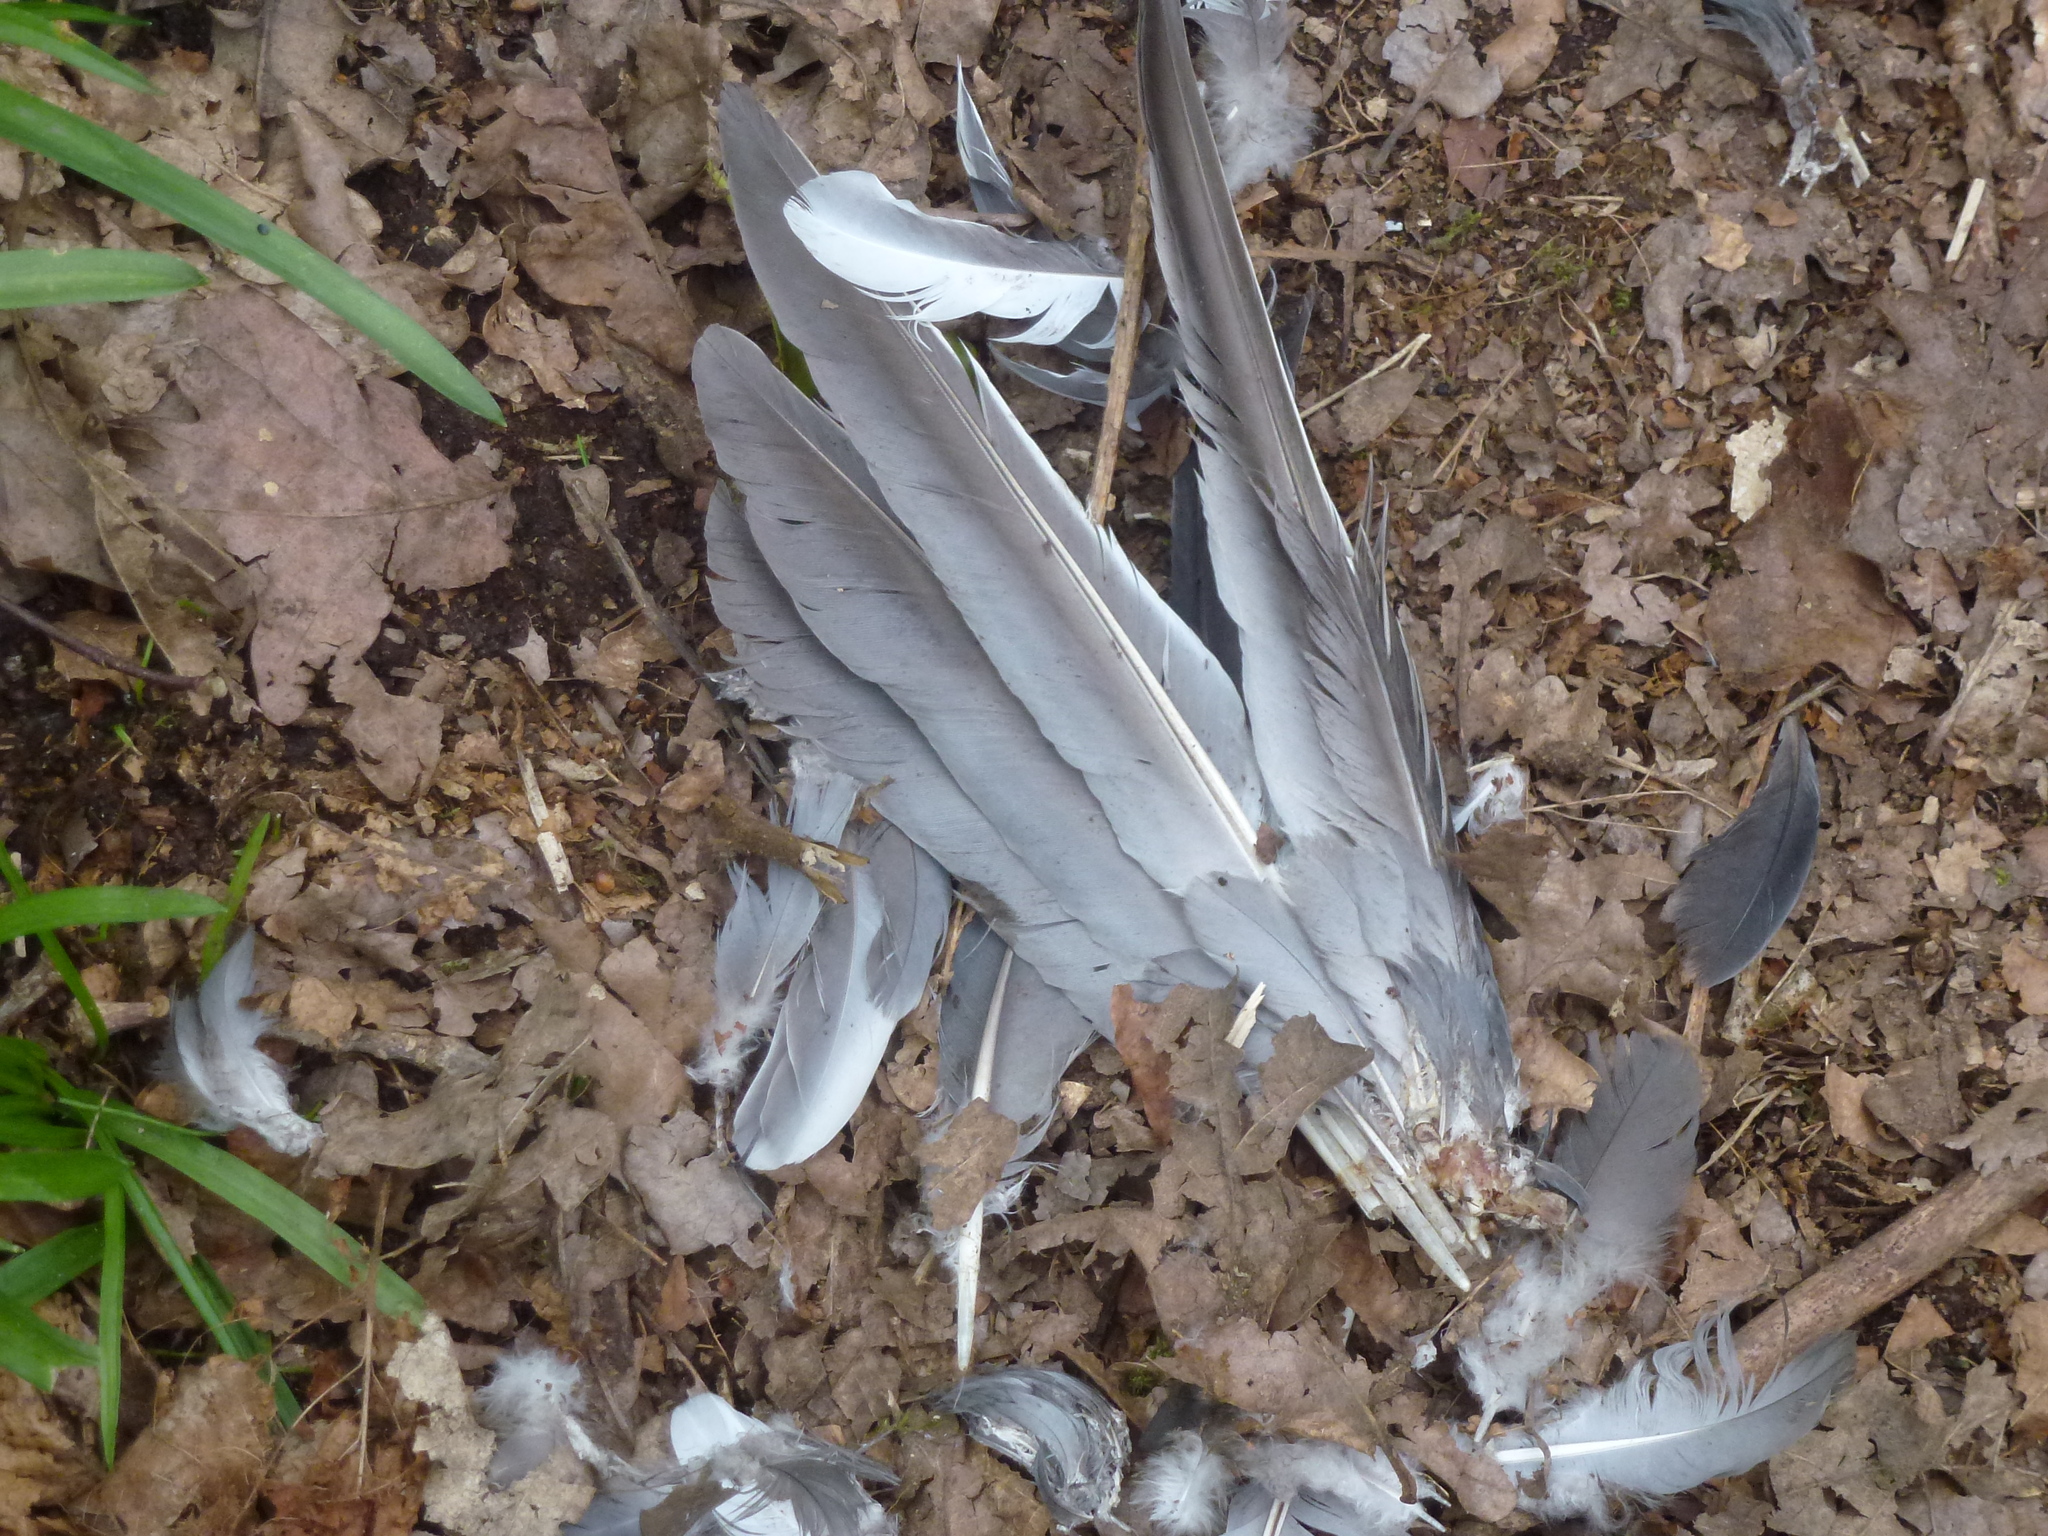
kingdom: Animalia
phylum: Chordata
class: Aves
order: Columbiformes
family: Columbidae
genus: Columba
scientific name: Columba palumbus
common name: Common wood pigeon
